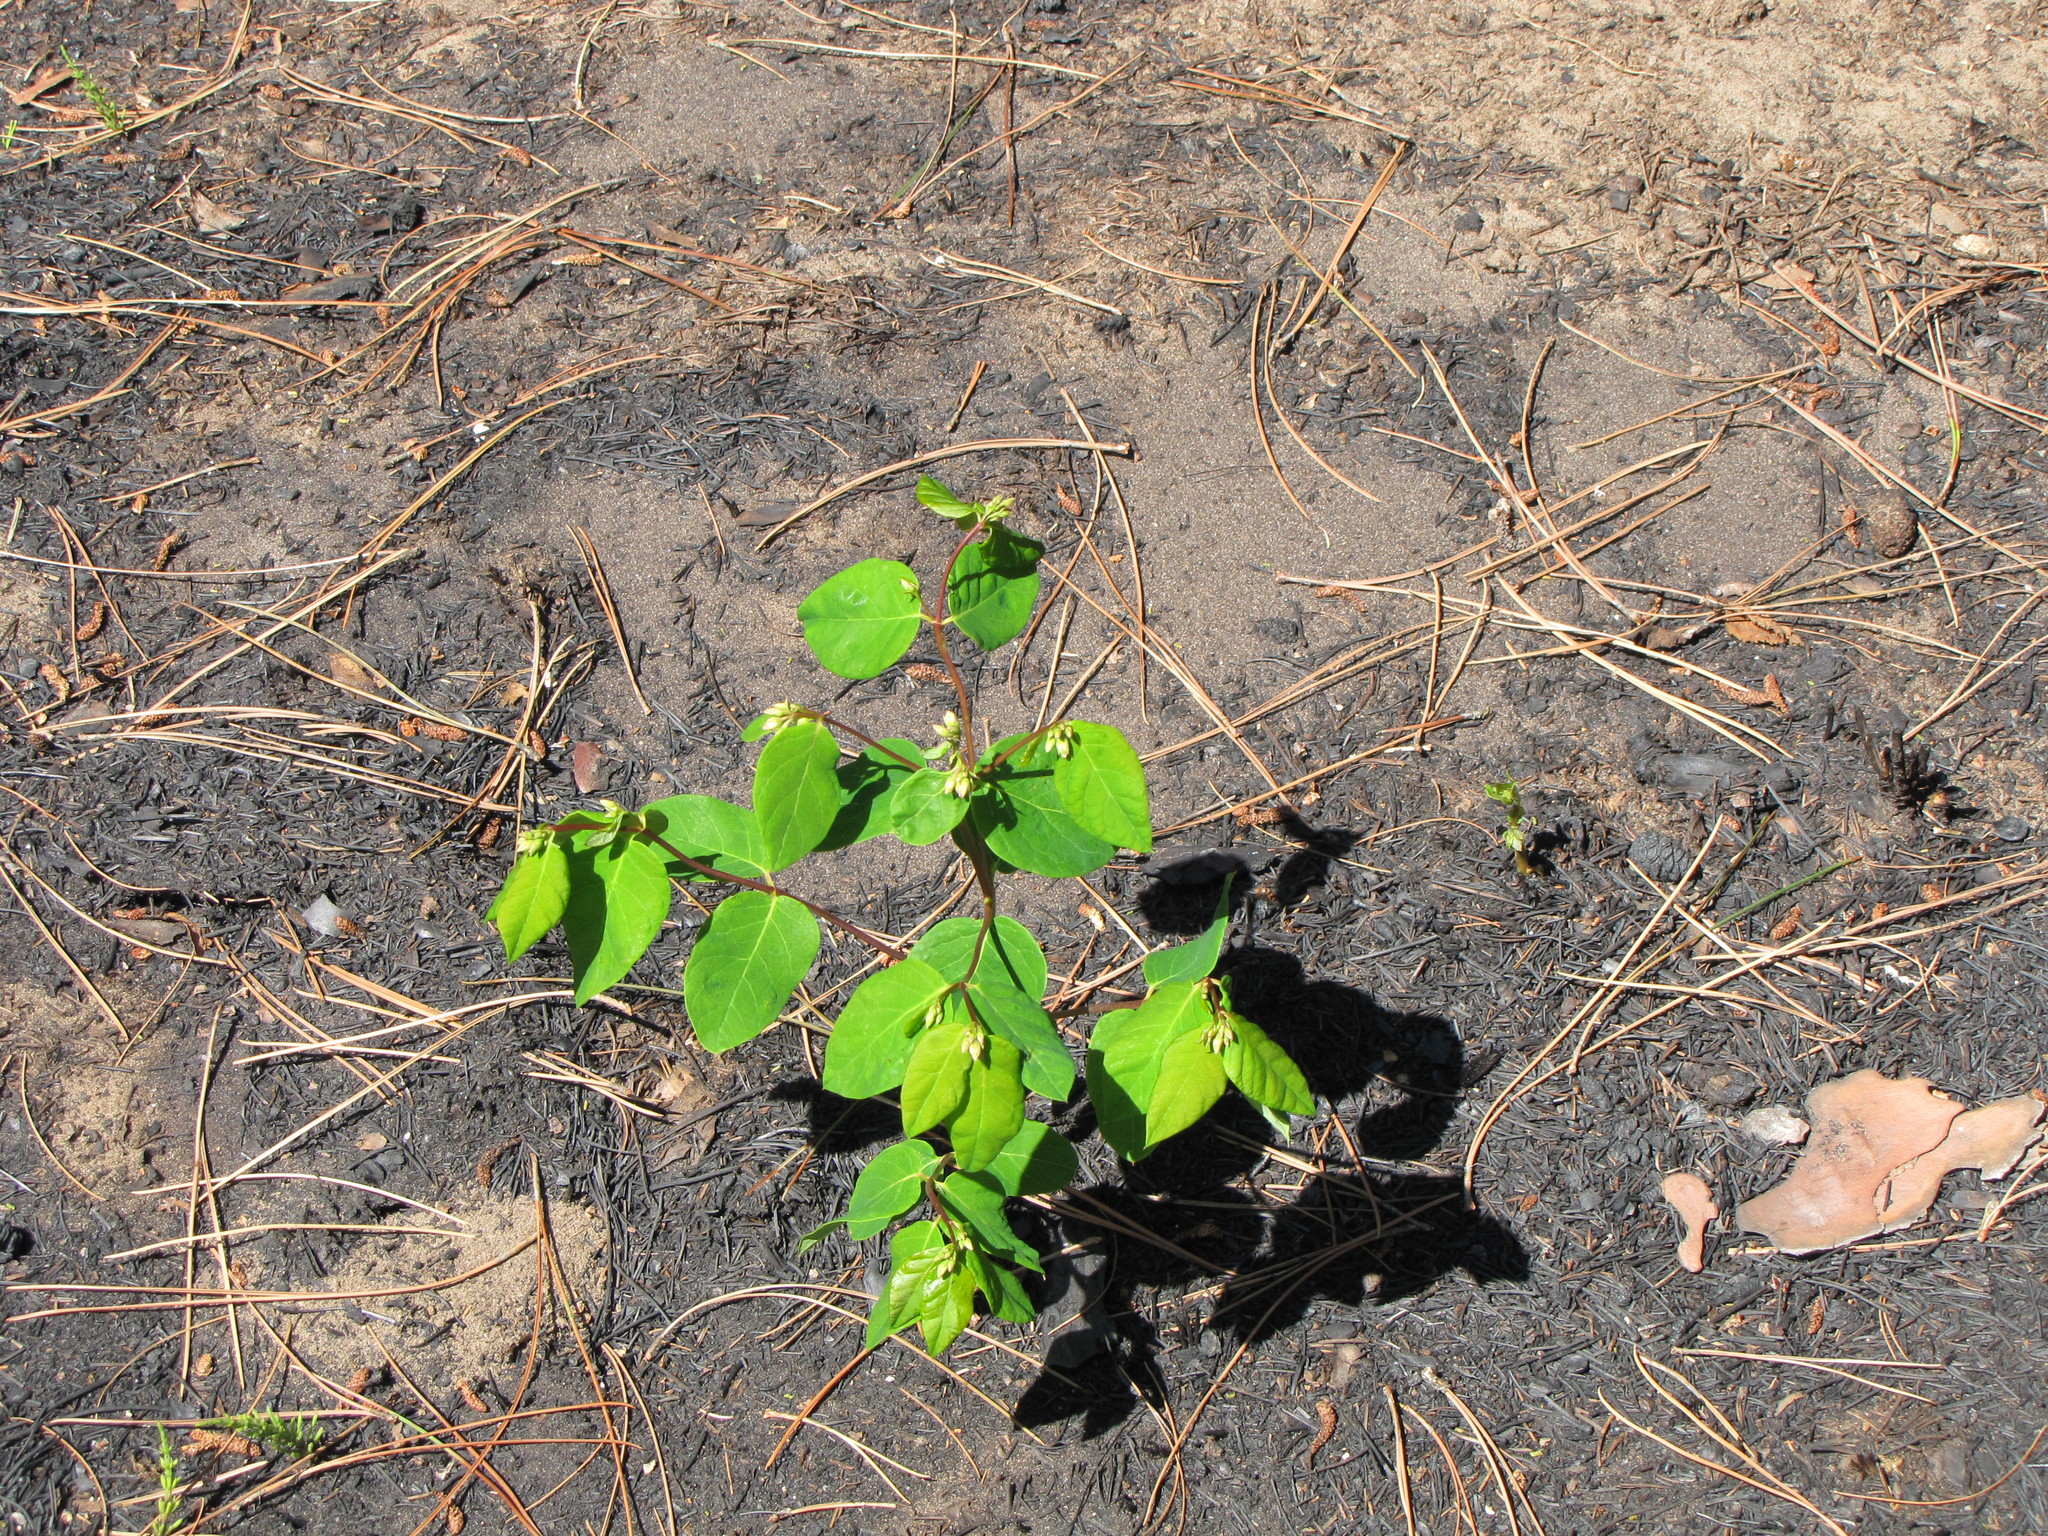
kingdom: Plantae
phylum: Tracheophyta
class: Magnoliopsida
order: Gentianales
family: Apocynaceae
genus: Apocynum
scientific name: Apocynum androsaemifolium
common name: Spreading dogbane
